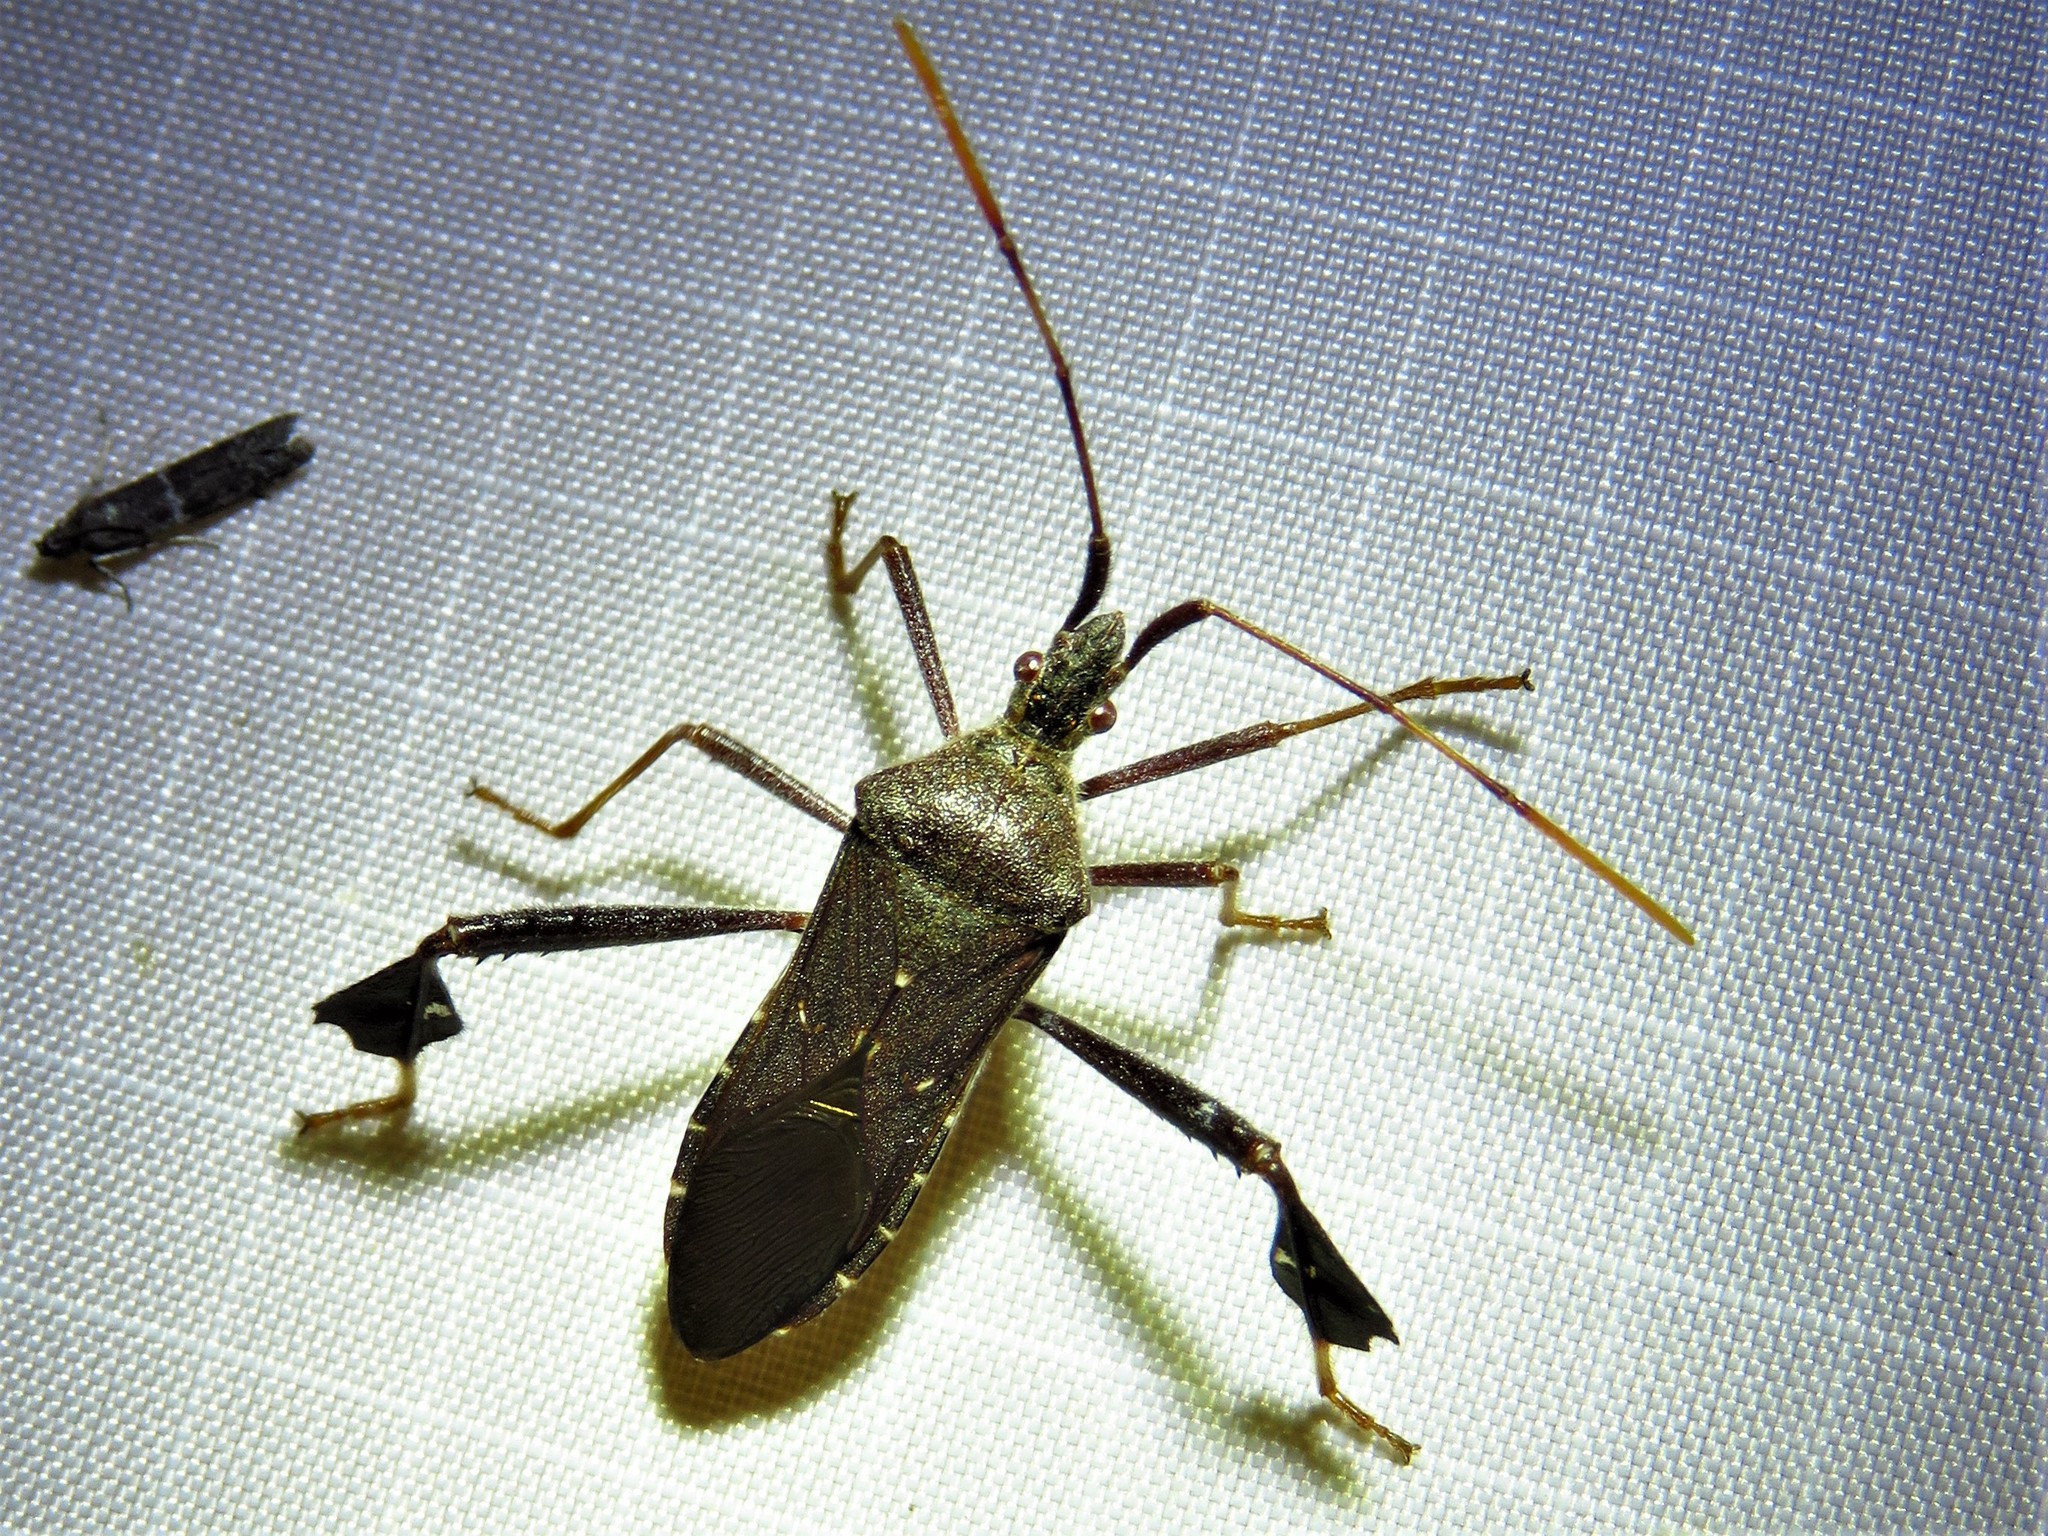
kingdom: Animalia
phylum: Arthropoda
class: Insecta
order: Hemiptera
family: Coreidae
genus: Leptoglossus
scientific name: Leptoglossus oppositus
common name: Northern leaf-footed bug
